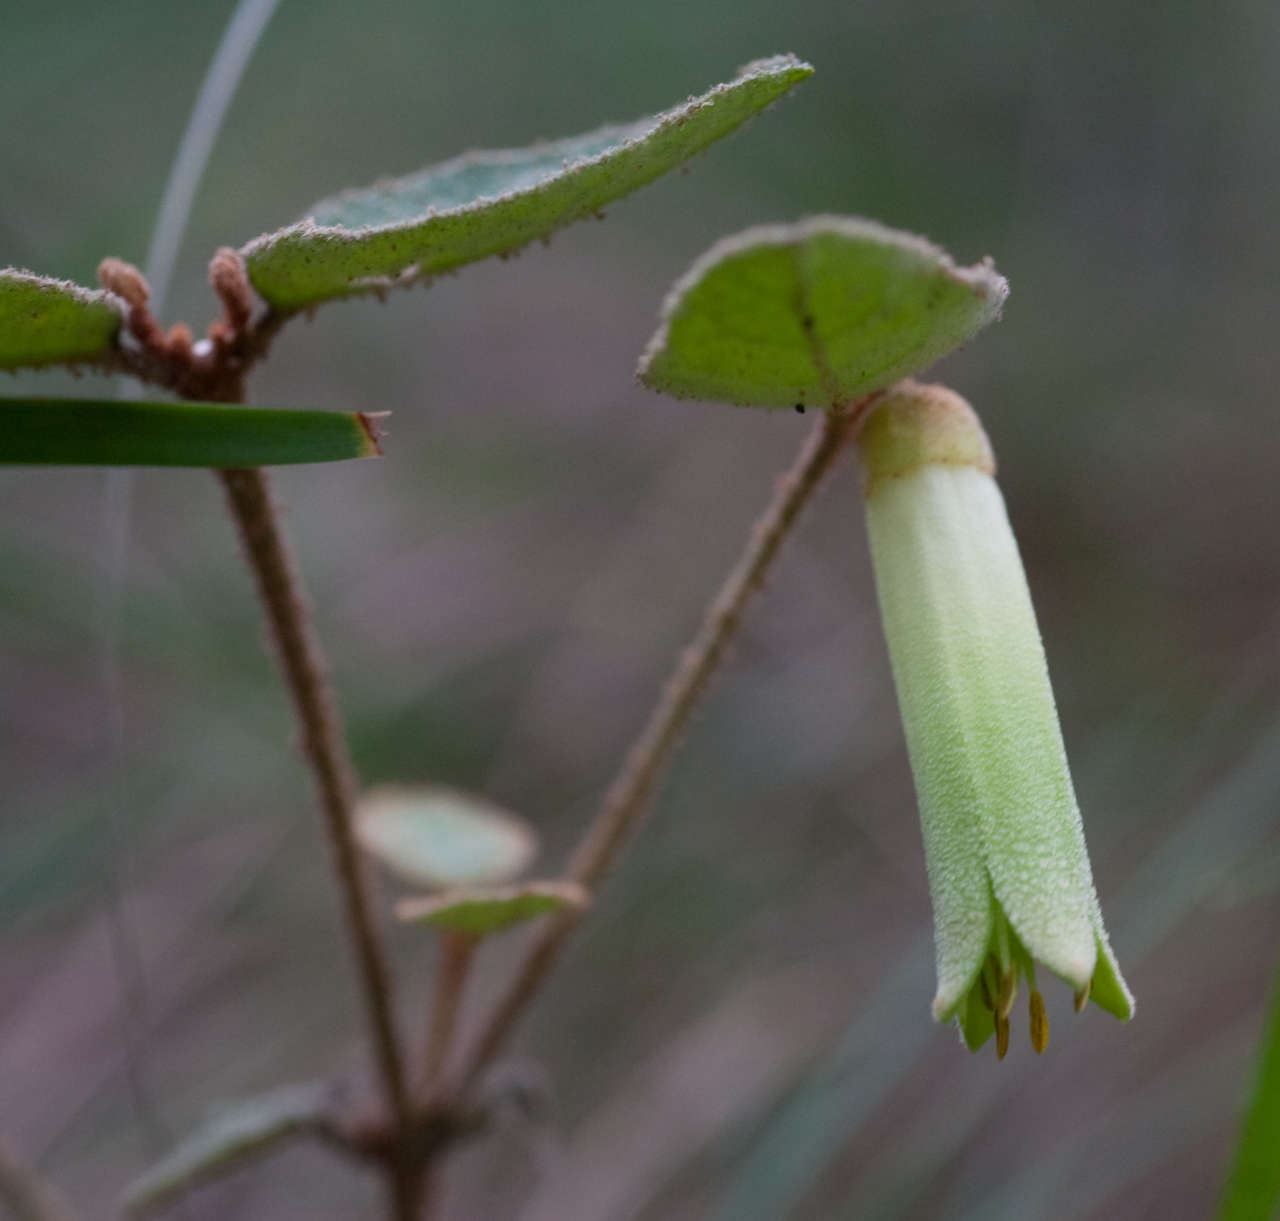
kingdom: Plantae
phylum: Tracheophyta
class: Magnoliopsida
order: Sapindales
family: Rutaceae
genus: Correa
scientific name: Correa reflexa
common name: Common correa
